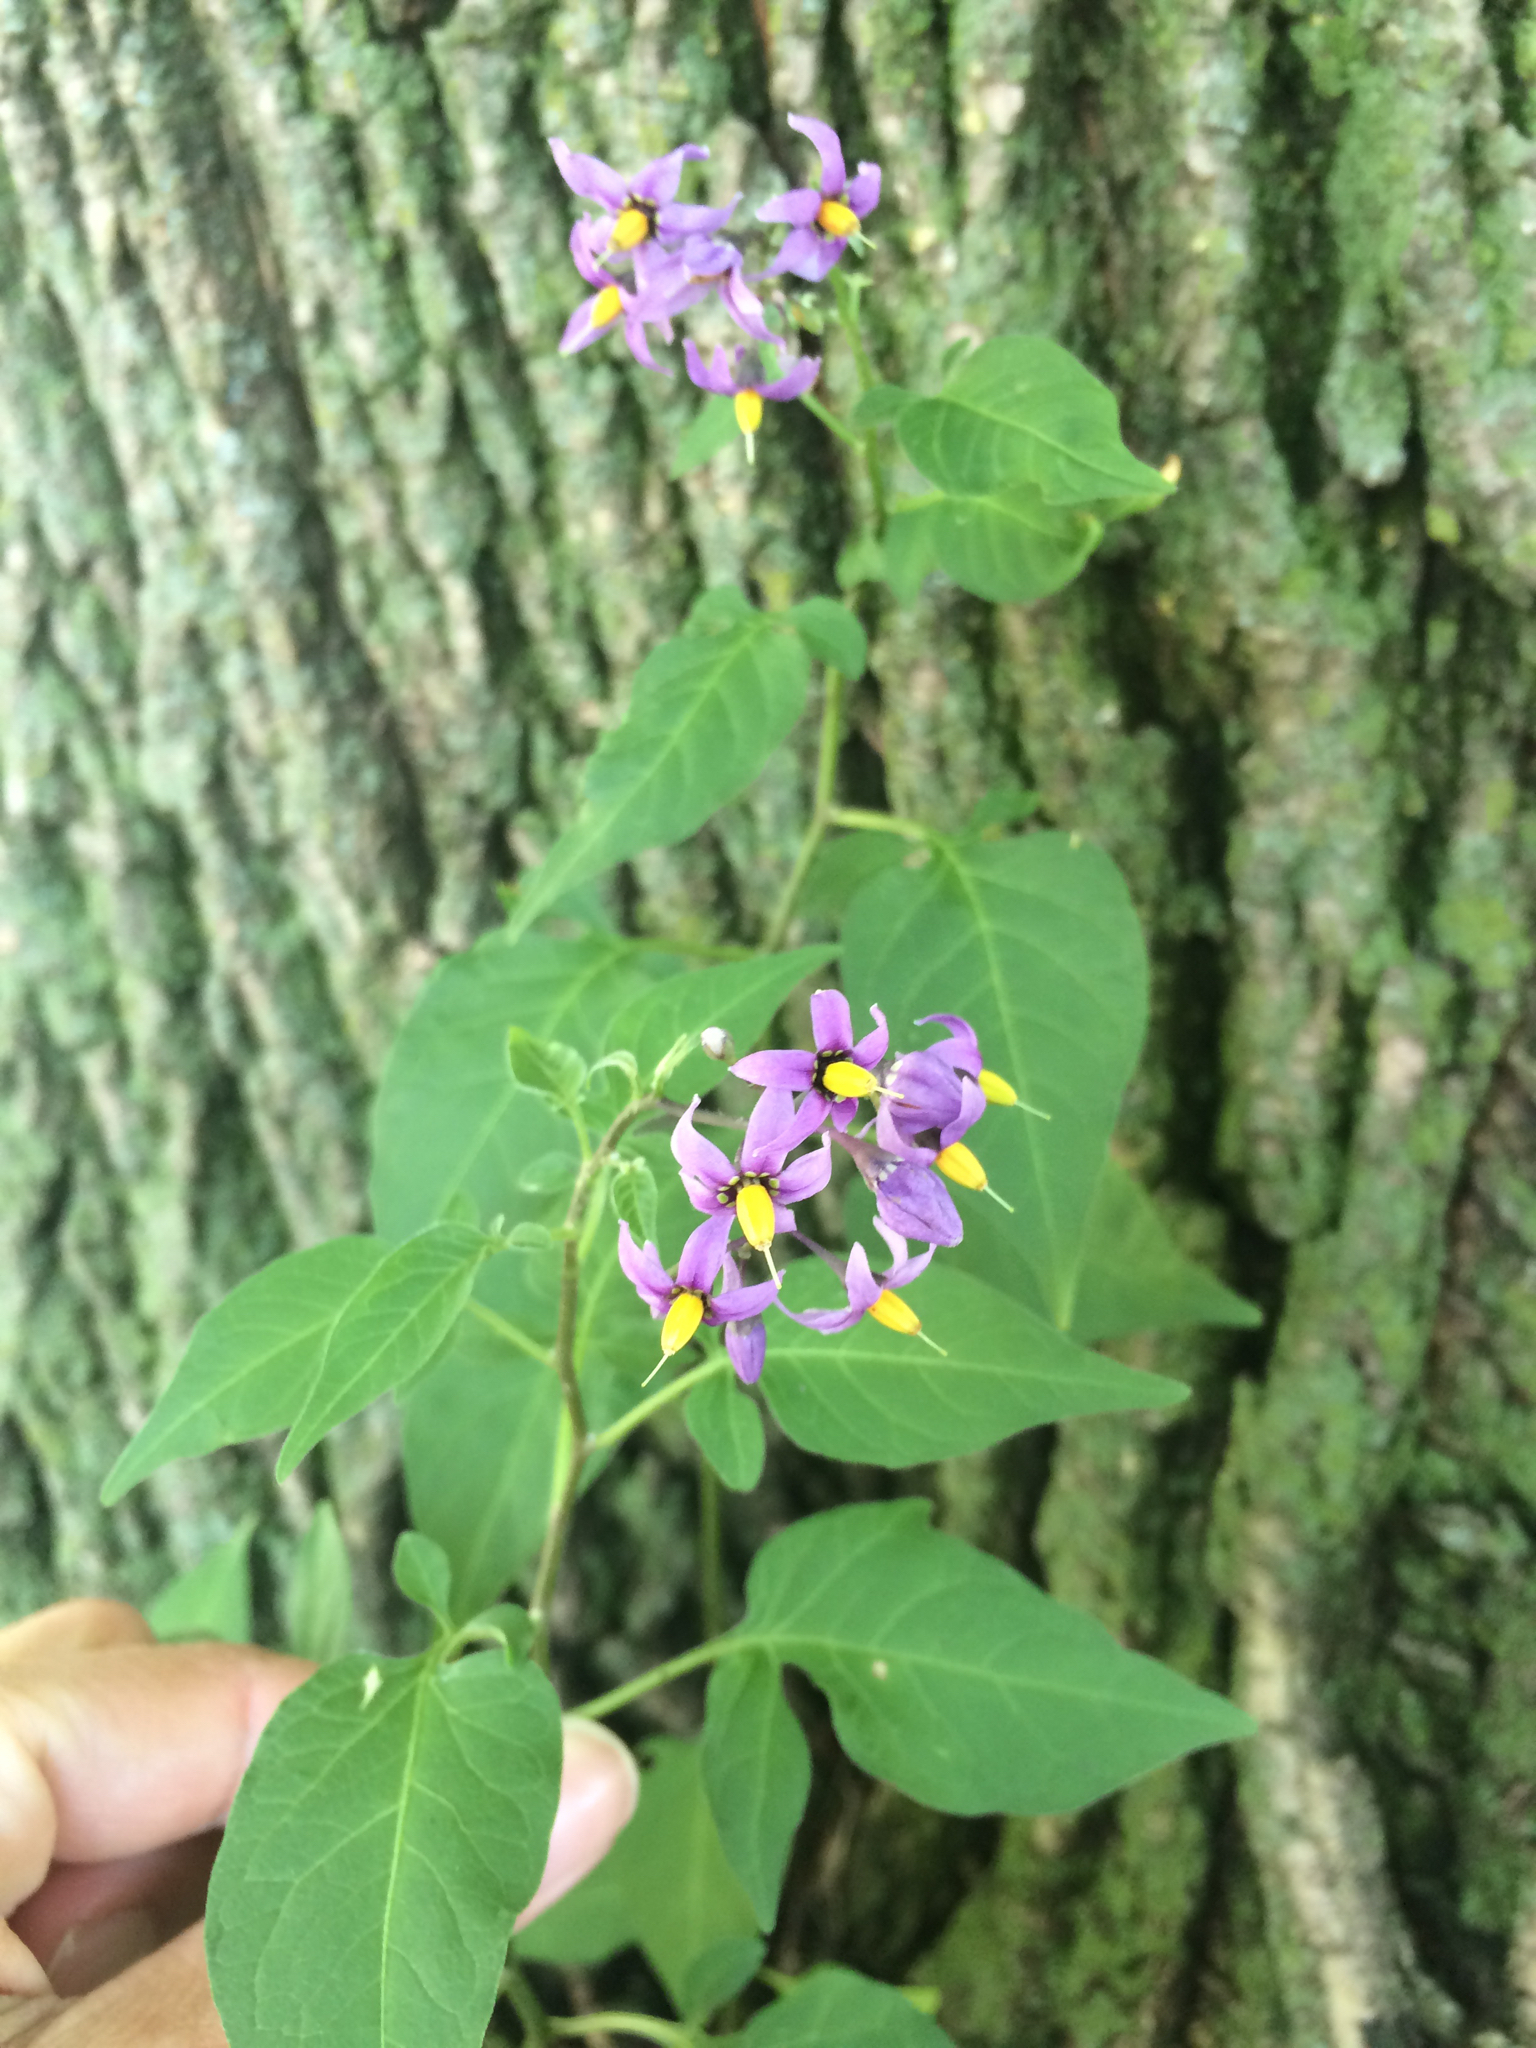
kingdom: Plantae
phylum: Tracheophyta
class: Magnoliopsida
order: Solanales
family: Solanaceae
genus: Solanum
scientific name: Solanum dulcamara
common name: Climbing nightshade
